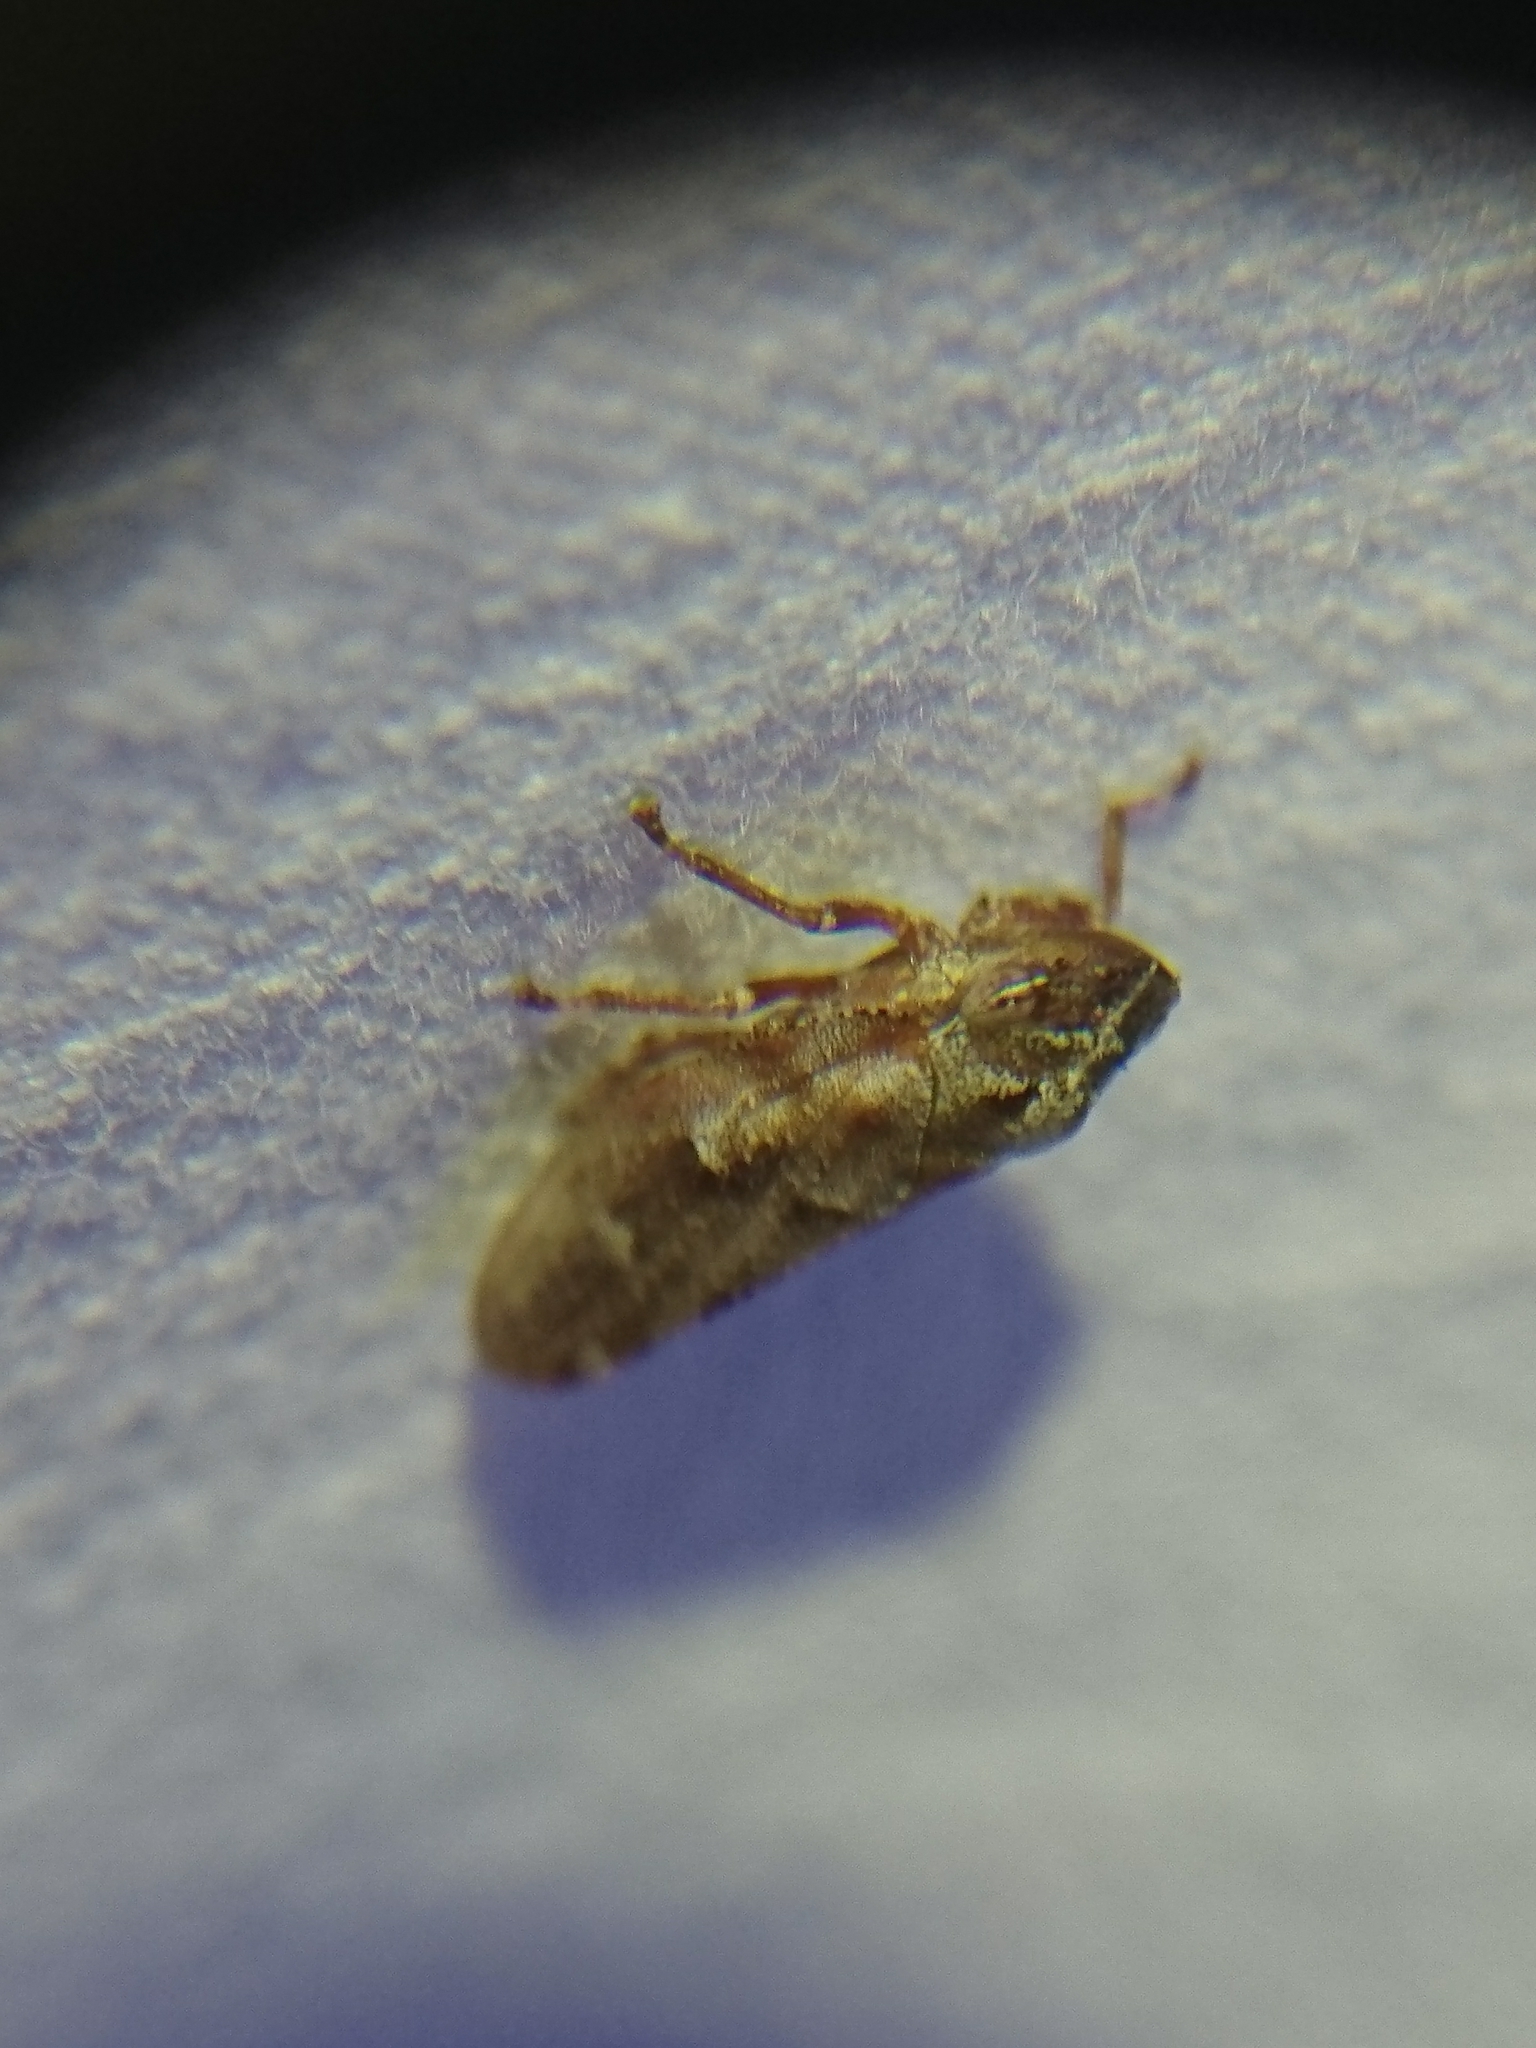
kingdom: Animalia
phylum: Arthropoda
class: Insecta
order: Hemiptera
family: Aphrophoridae
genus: Aphrophora
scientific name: Aphrophora saratogensis
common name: Saratoga spittlebug
